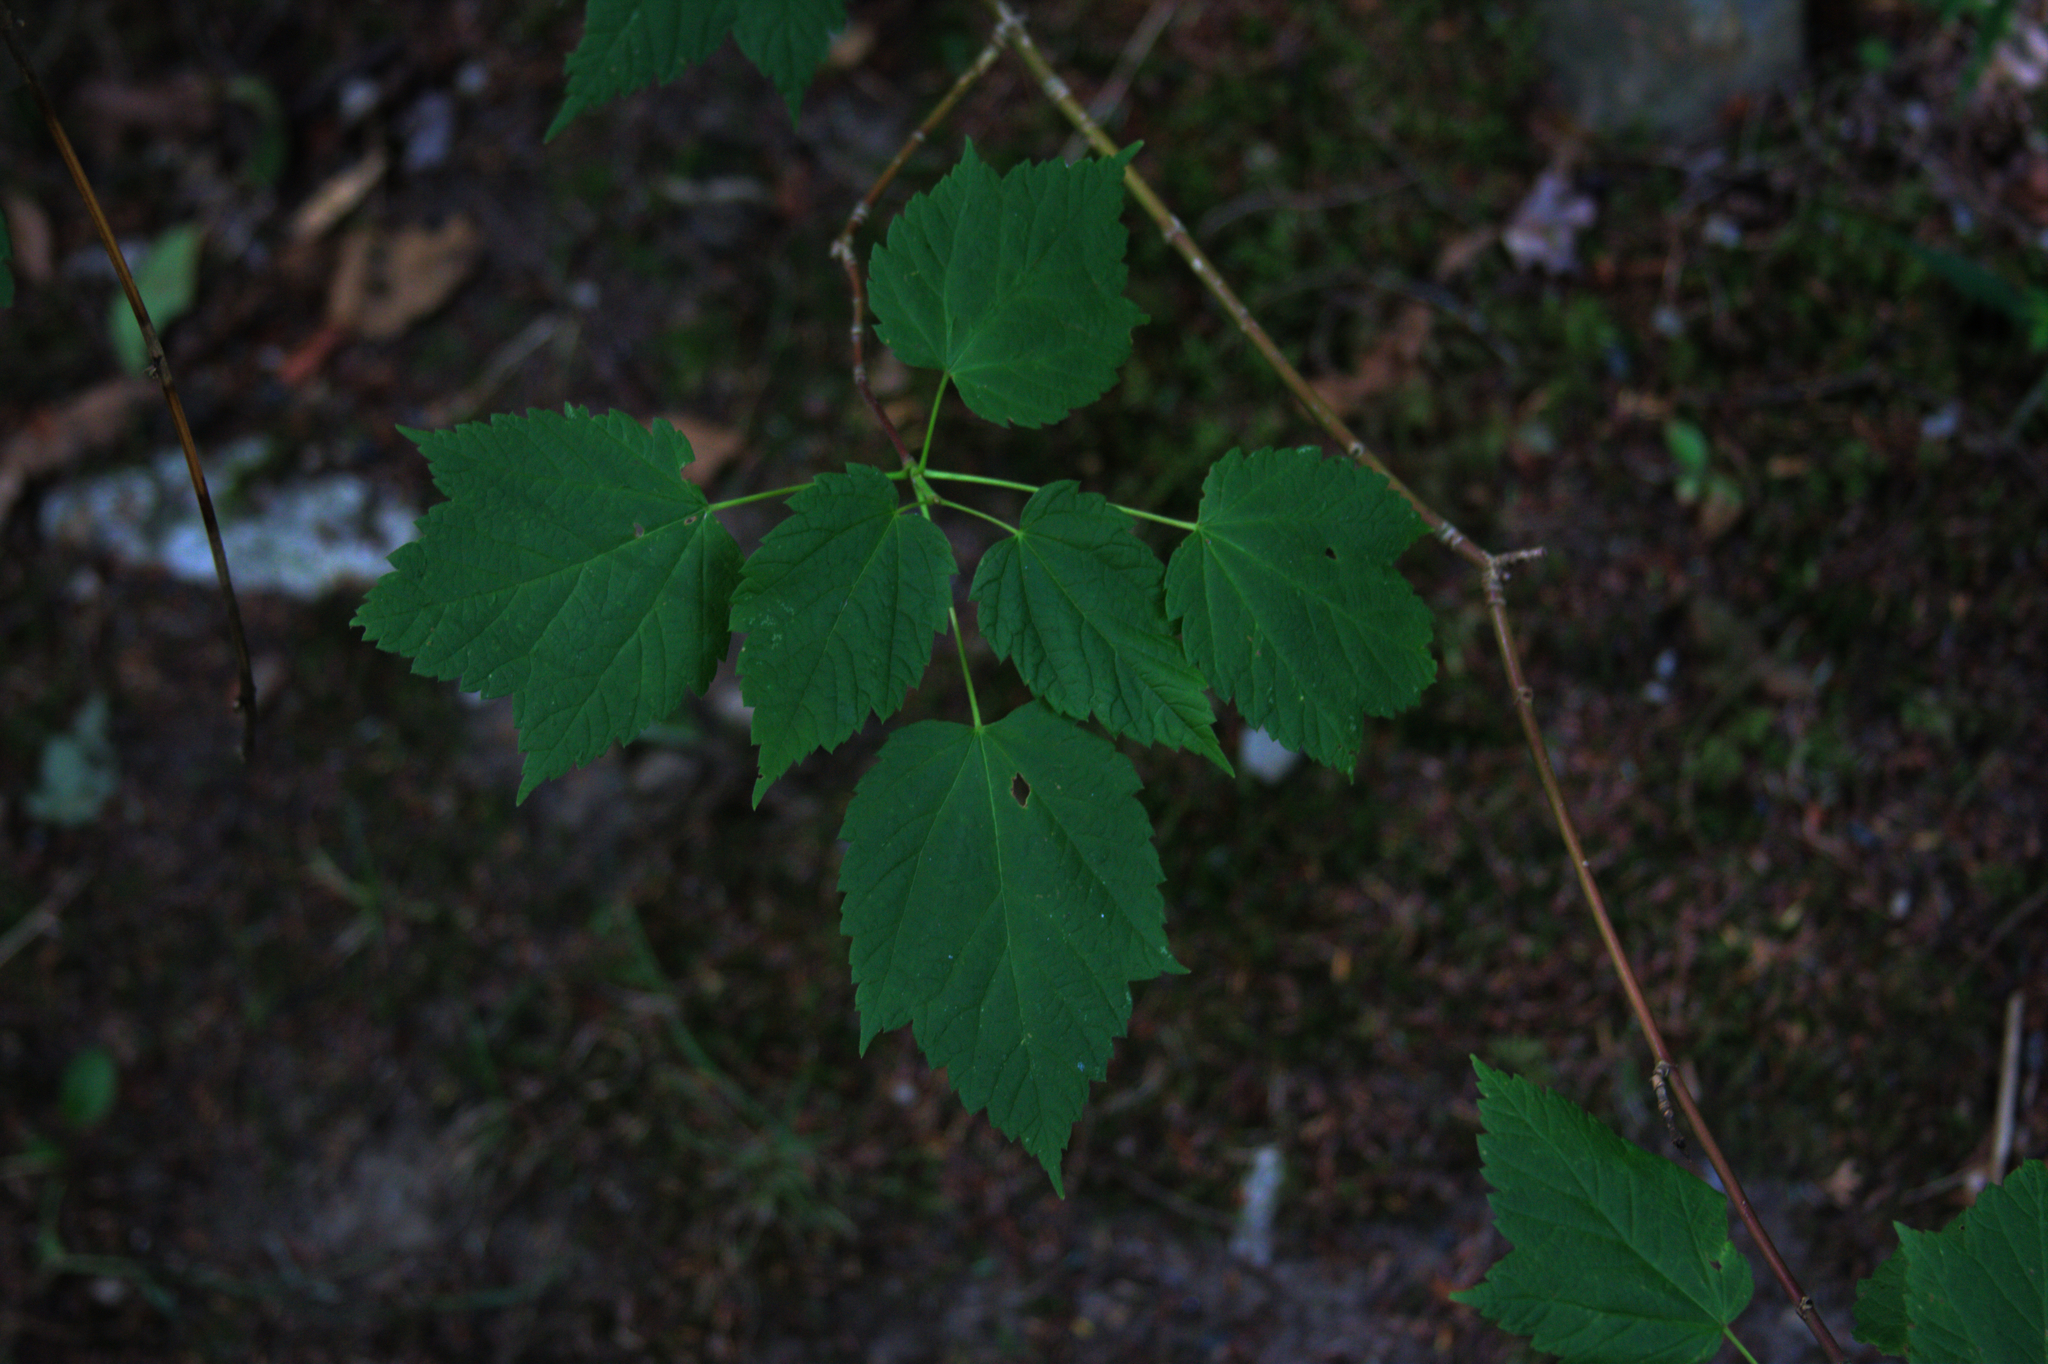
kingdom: Plantae
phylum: Tracheophyta
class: Magnoliopsida
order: Sapindales
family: Sapindaceae
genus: Acer
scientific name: Acer spicatum
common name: Mountain maple
